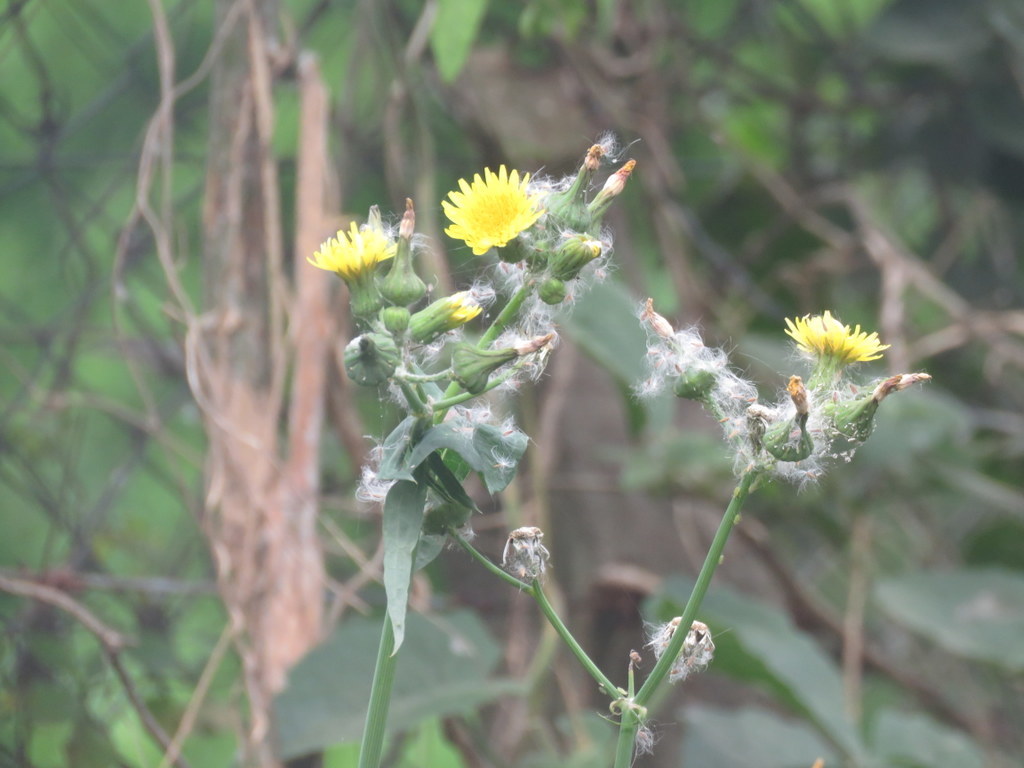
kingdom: Plantae
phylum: Tracheophyta
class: Magnoliopsida
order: Asterales
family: Asteraceae
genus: Sonchus
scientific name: Sonchus oleraceus
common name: Common sowthistle
